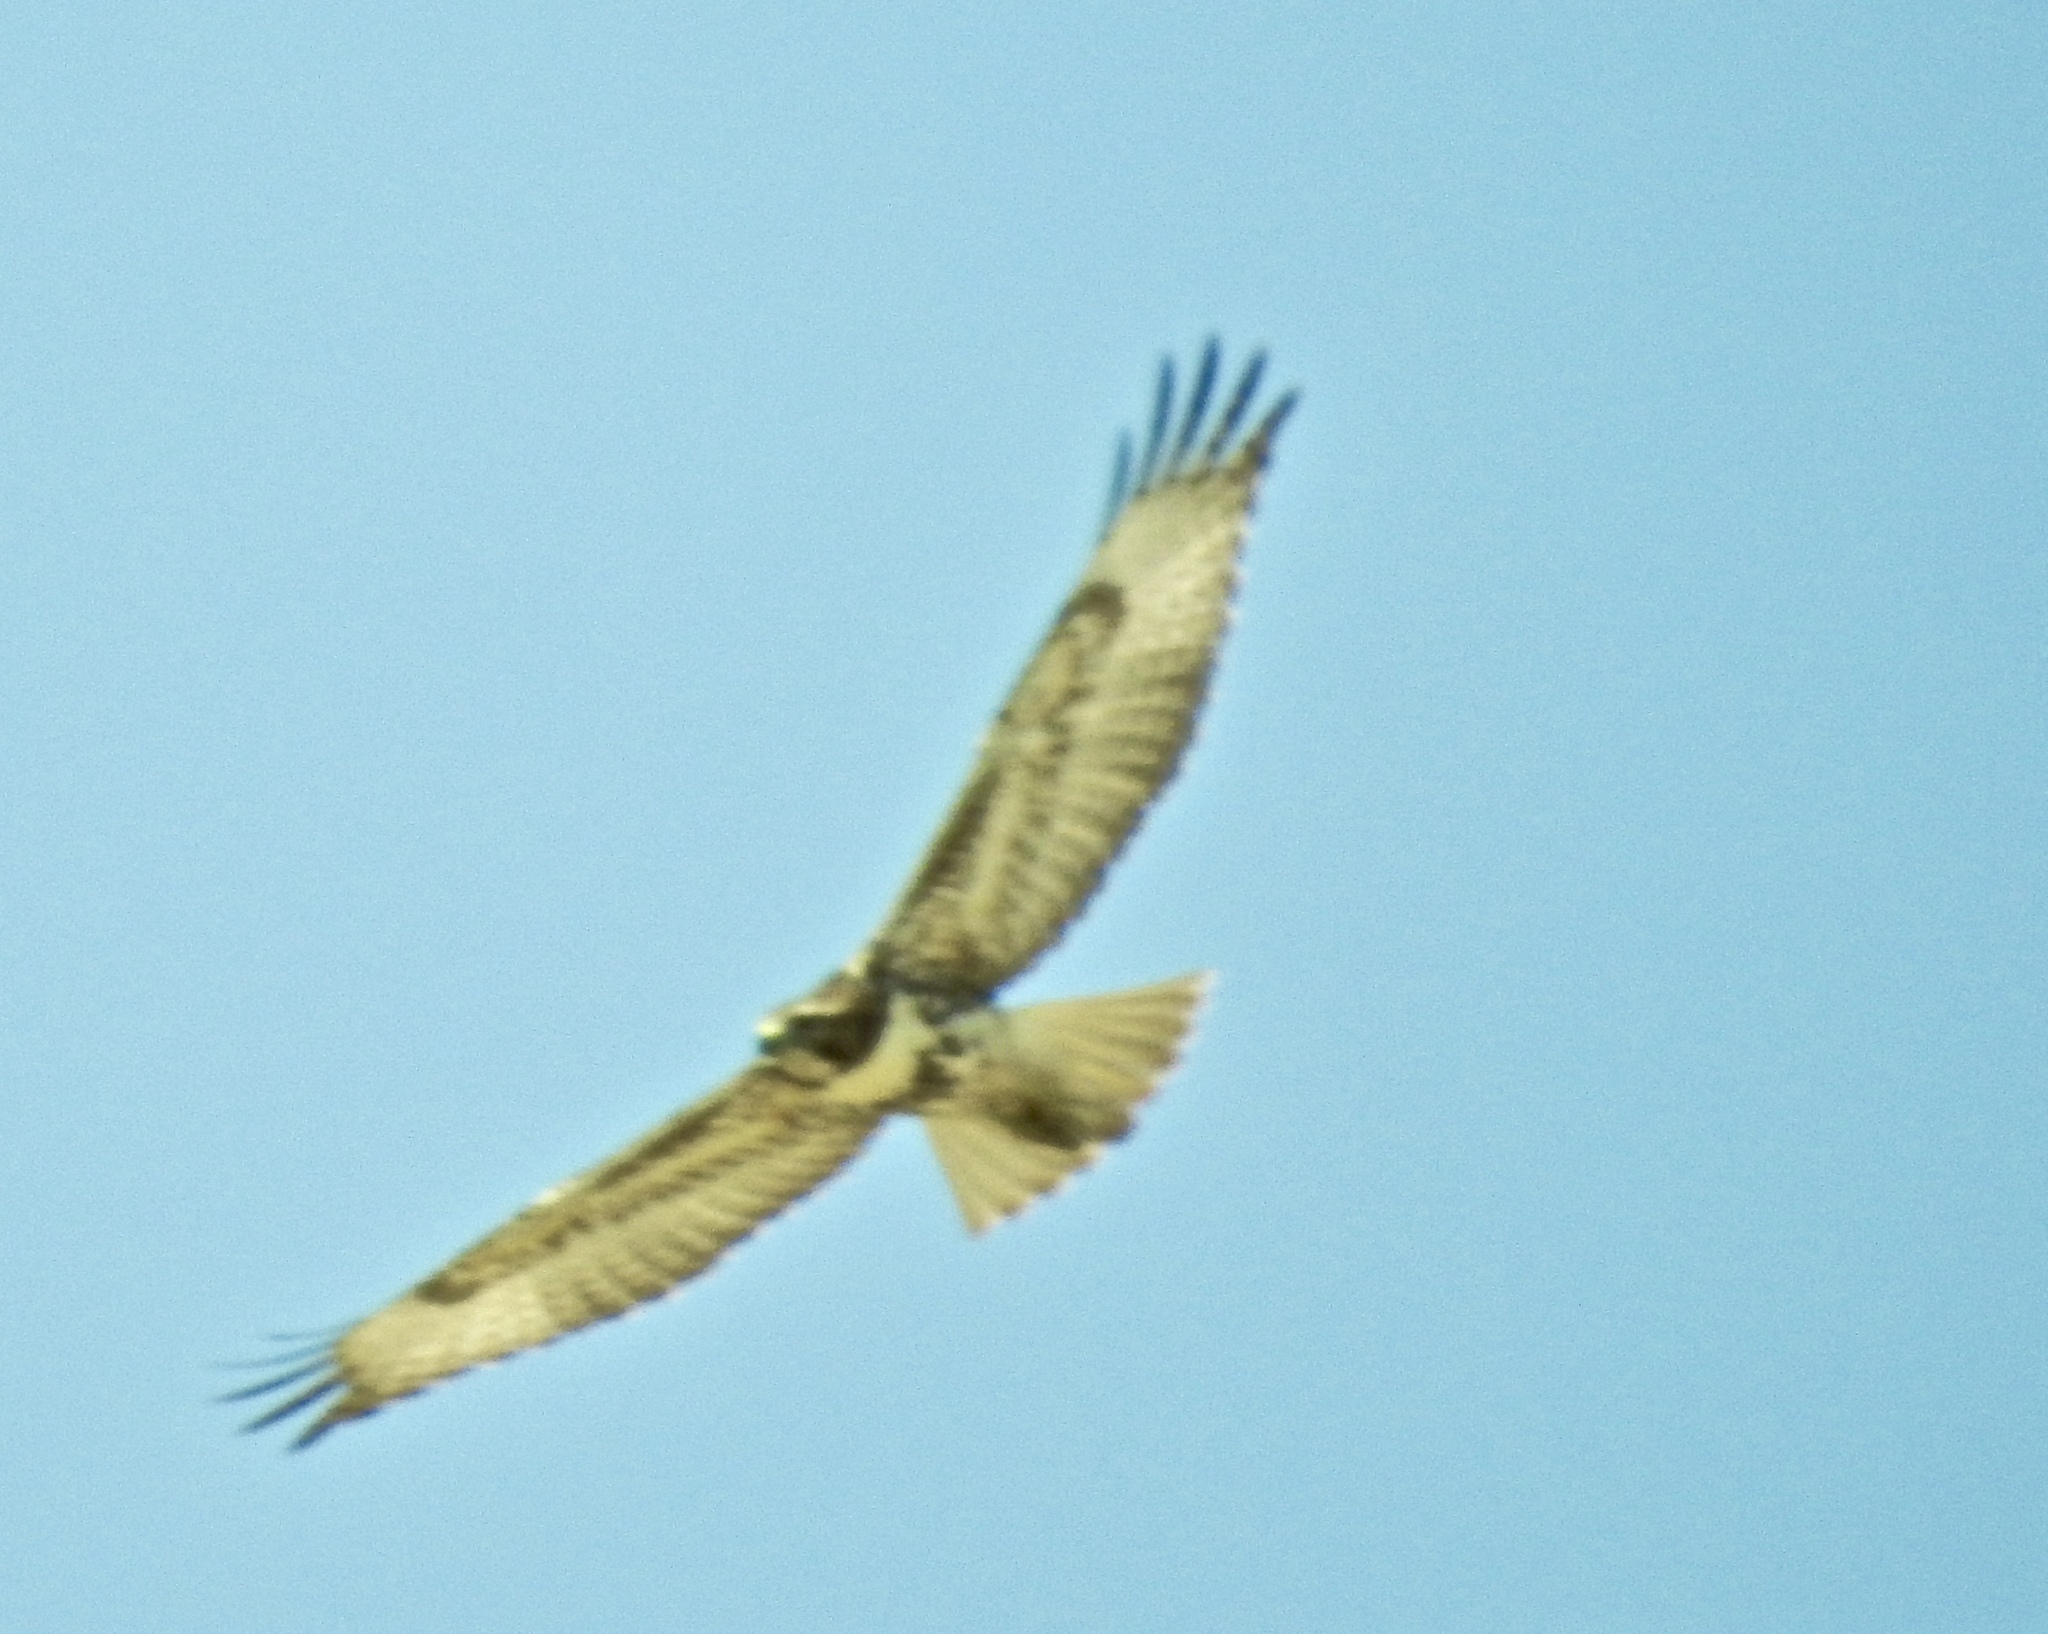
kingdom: Animalia
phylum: Chordata
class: Aves
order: Accipitriformes
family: Accipitridae
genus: Buteo
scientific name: Buteo jamaicensis
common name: Red-tailed hawk
